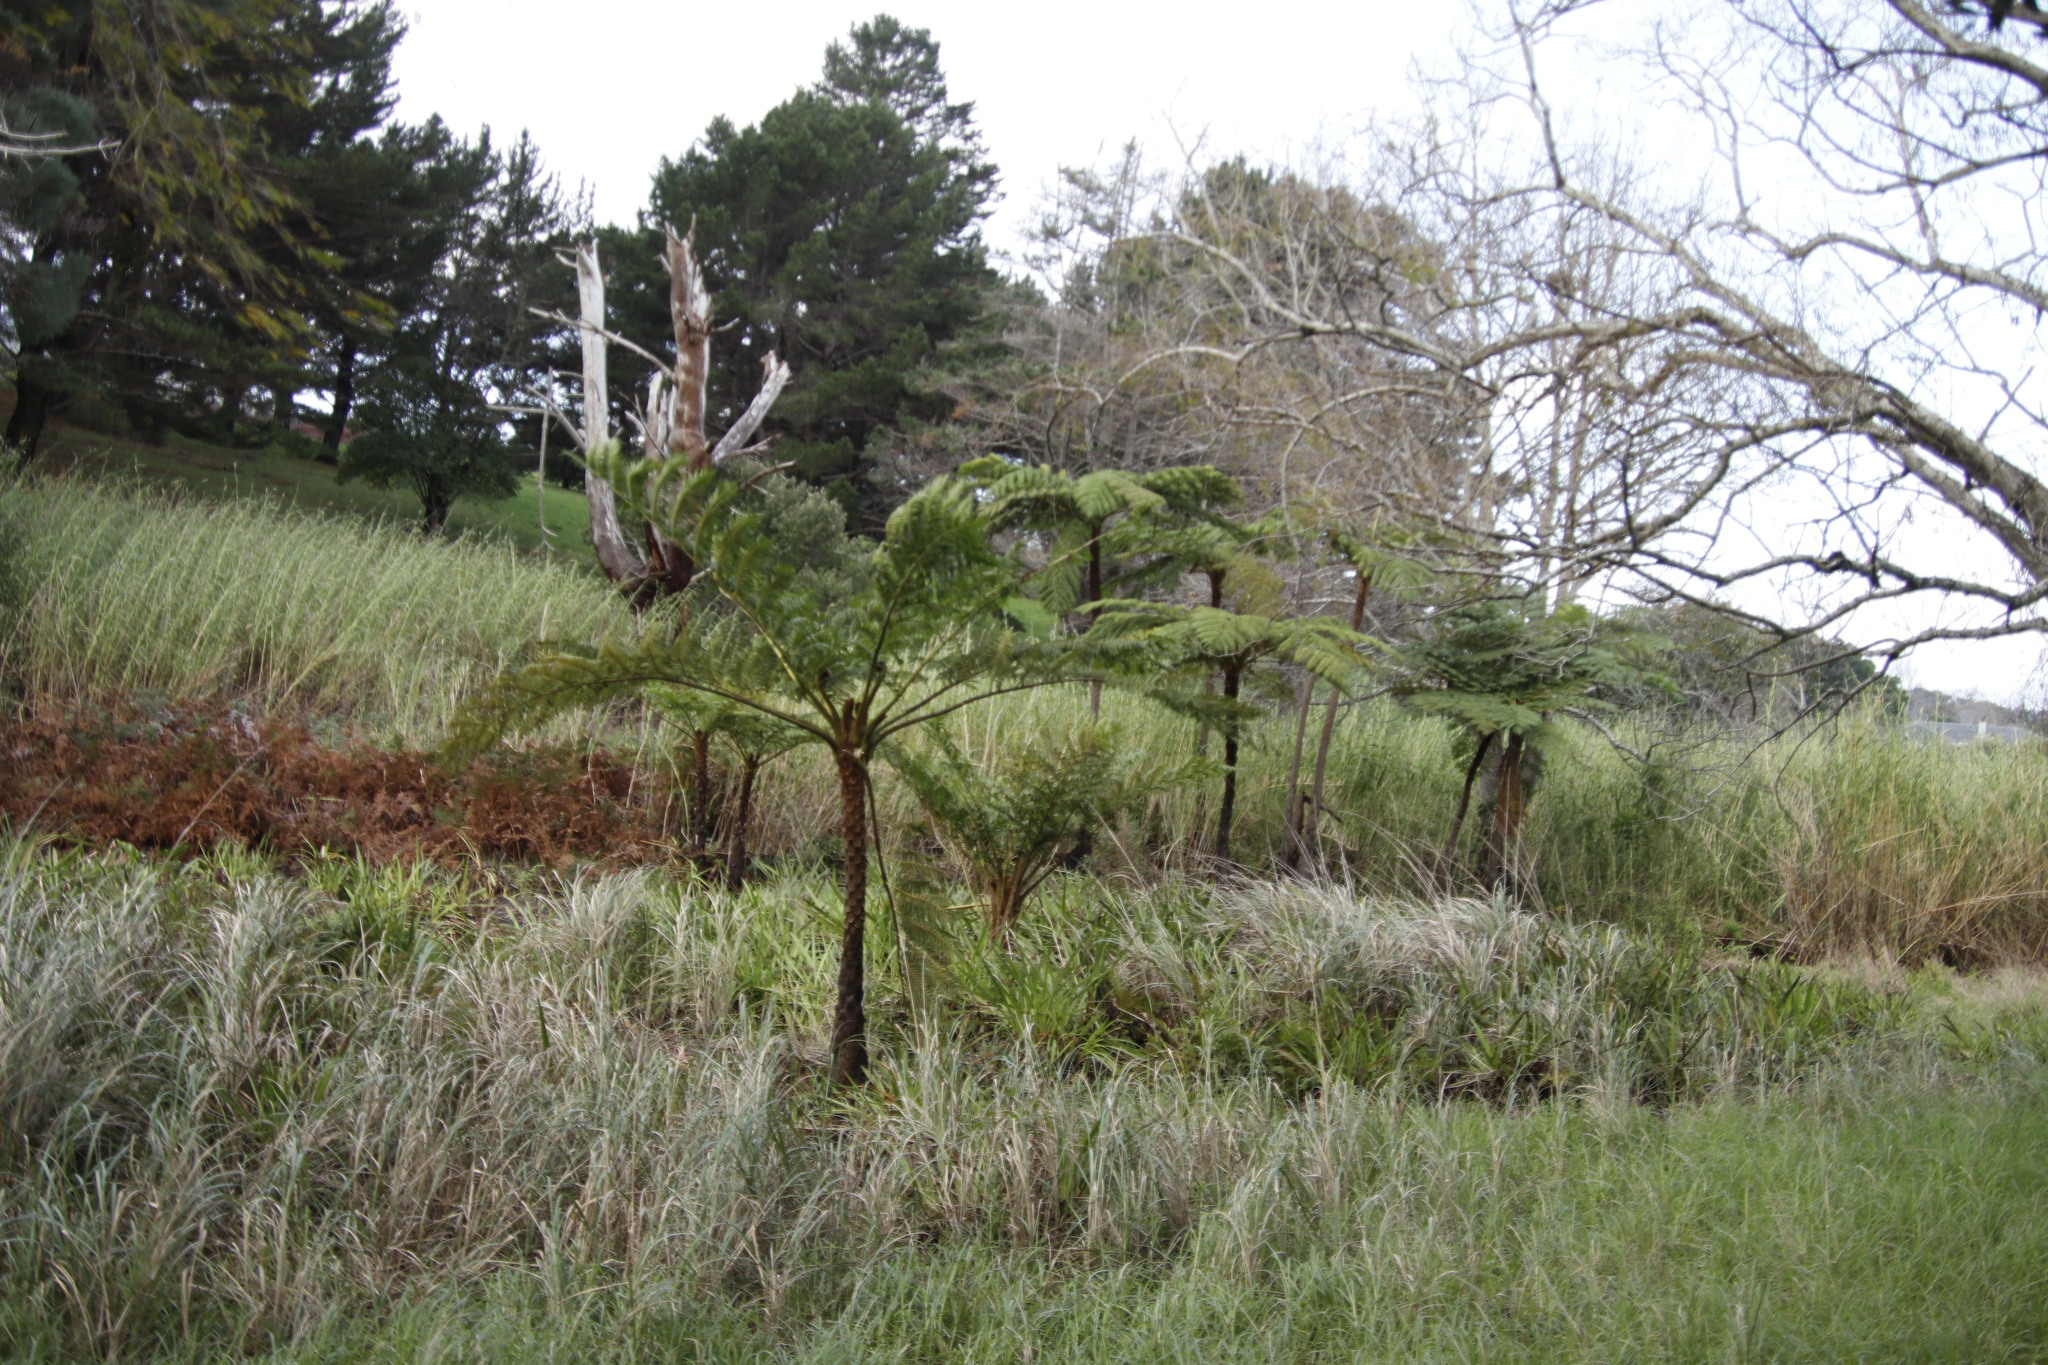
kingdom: Plantae
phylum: Tracheophyta
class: Polypodiopsida
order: Cyatheales
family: Cyatheaceae
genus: Sphaeropteris
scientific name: Sphaeropteris cooperi
